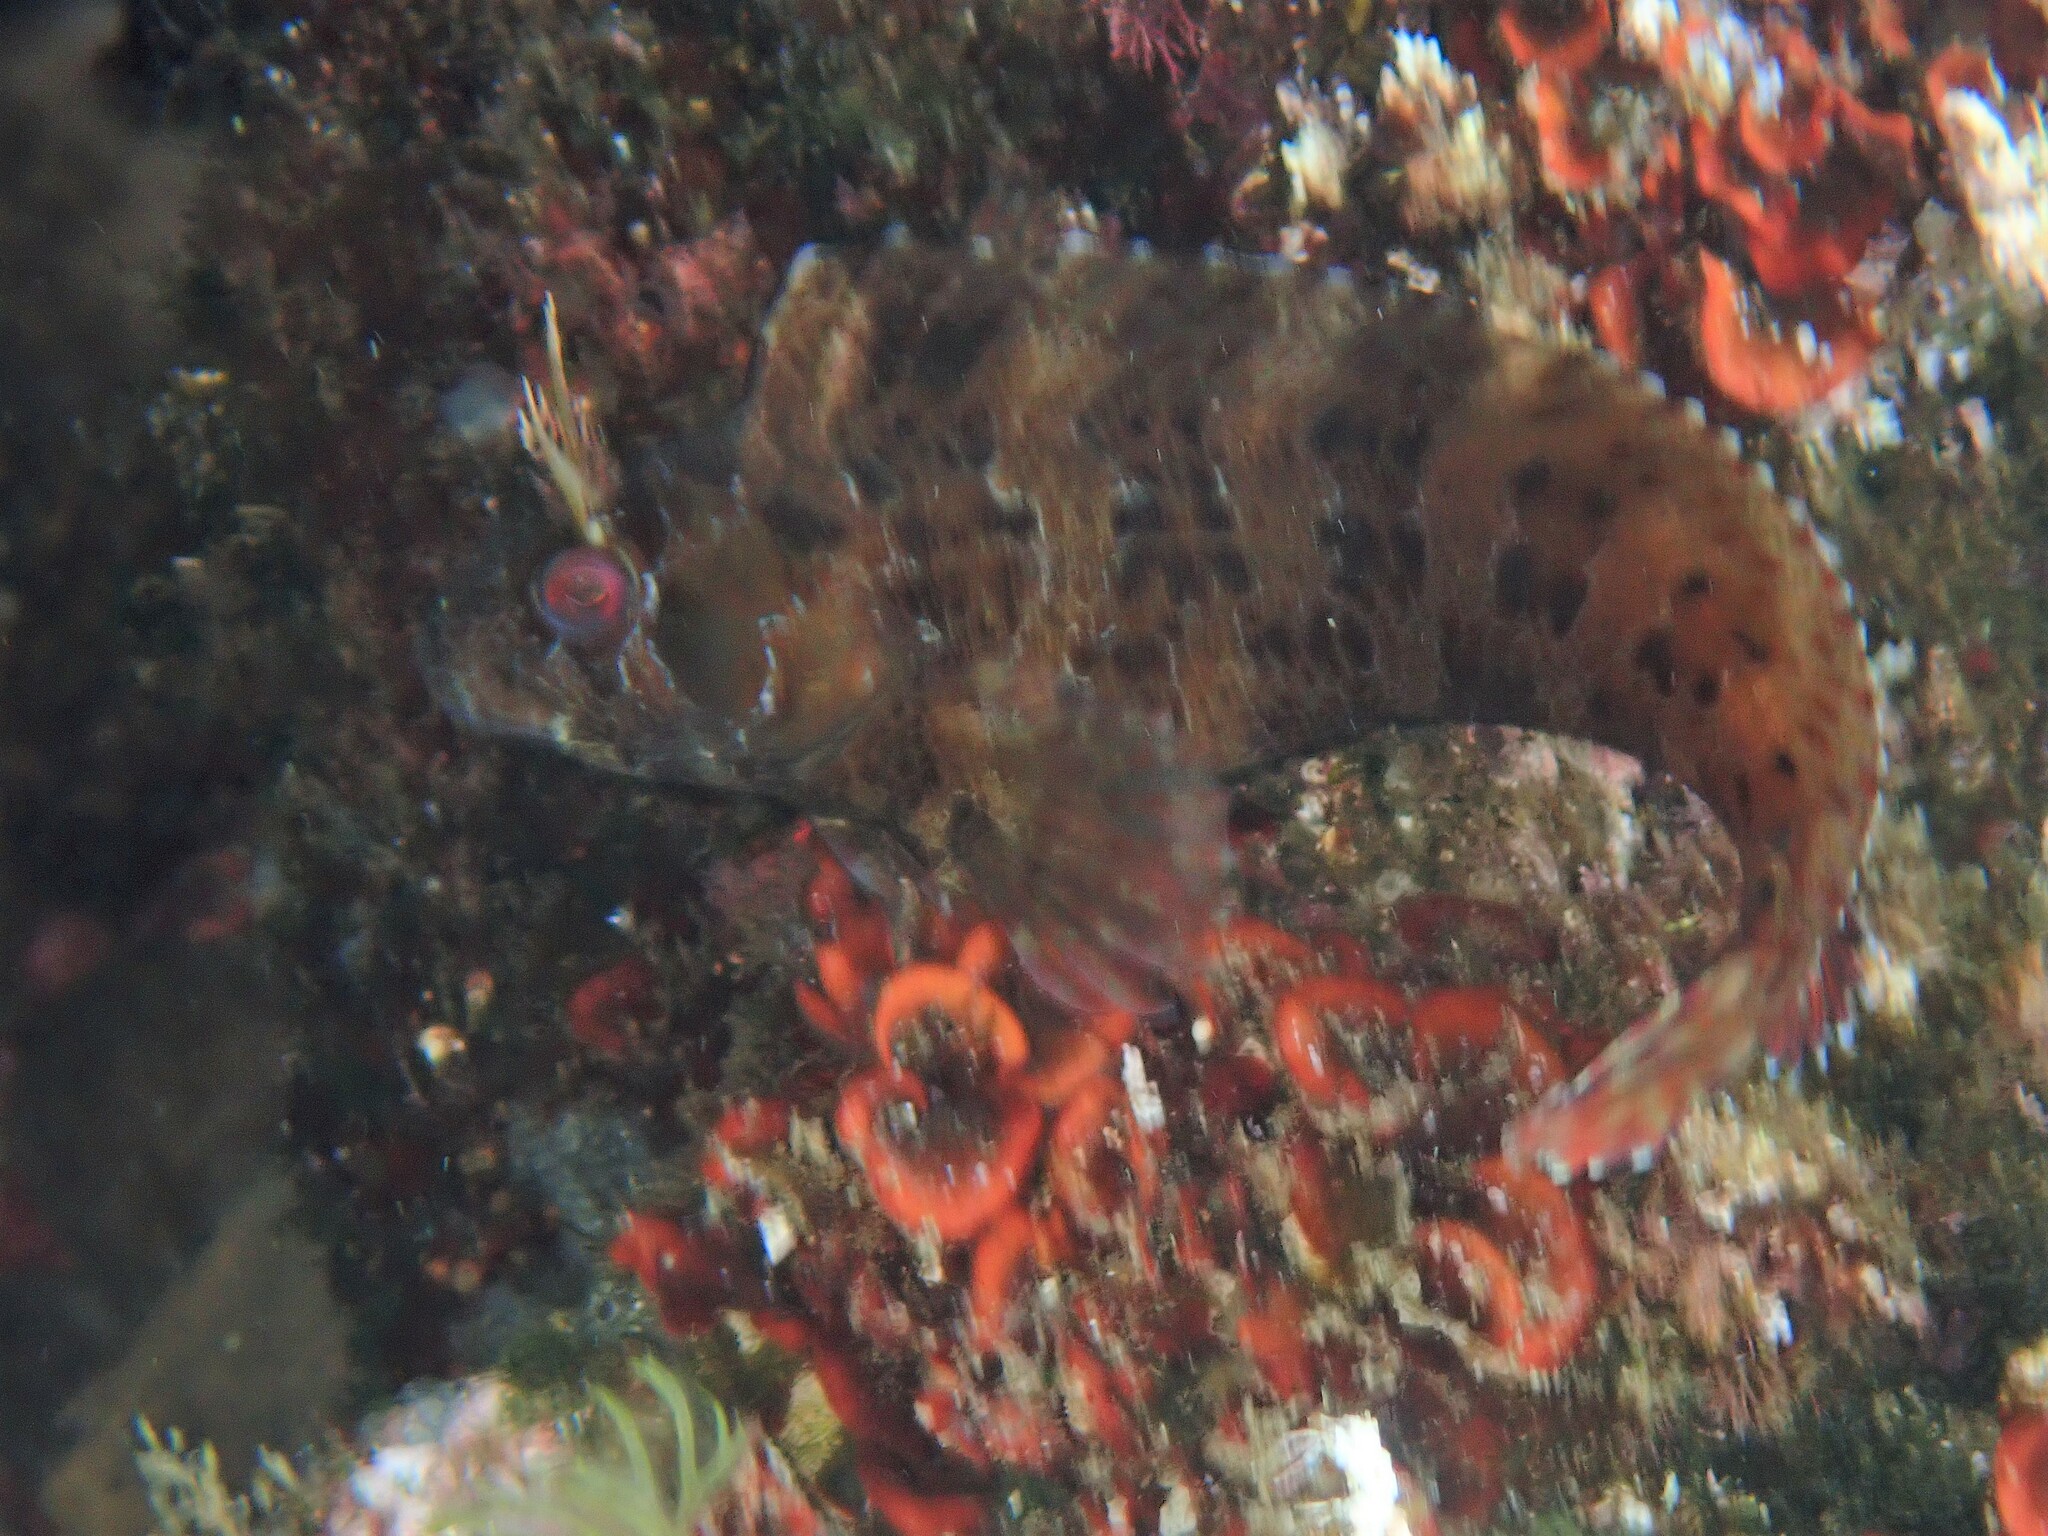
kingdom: Animalia
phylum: Chordata
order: Perciformes
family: Blenniidae
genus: Parablennius
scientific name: Parablennius gattorugine
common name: Tompot blenny
